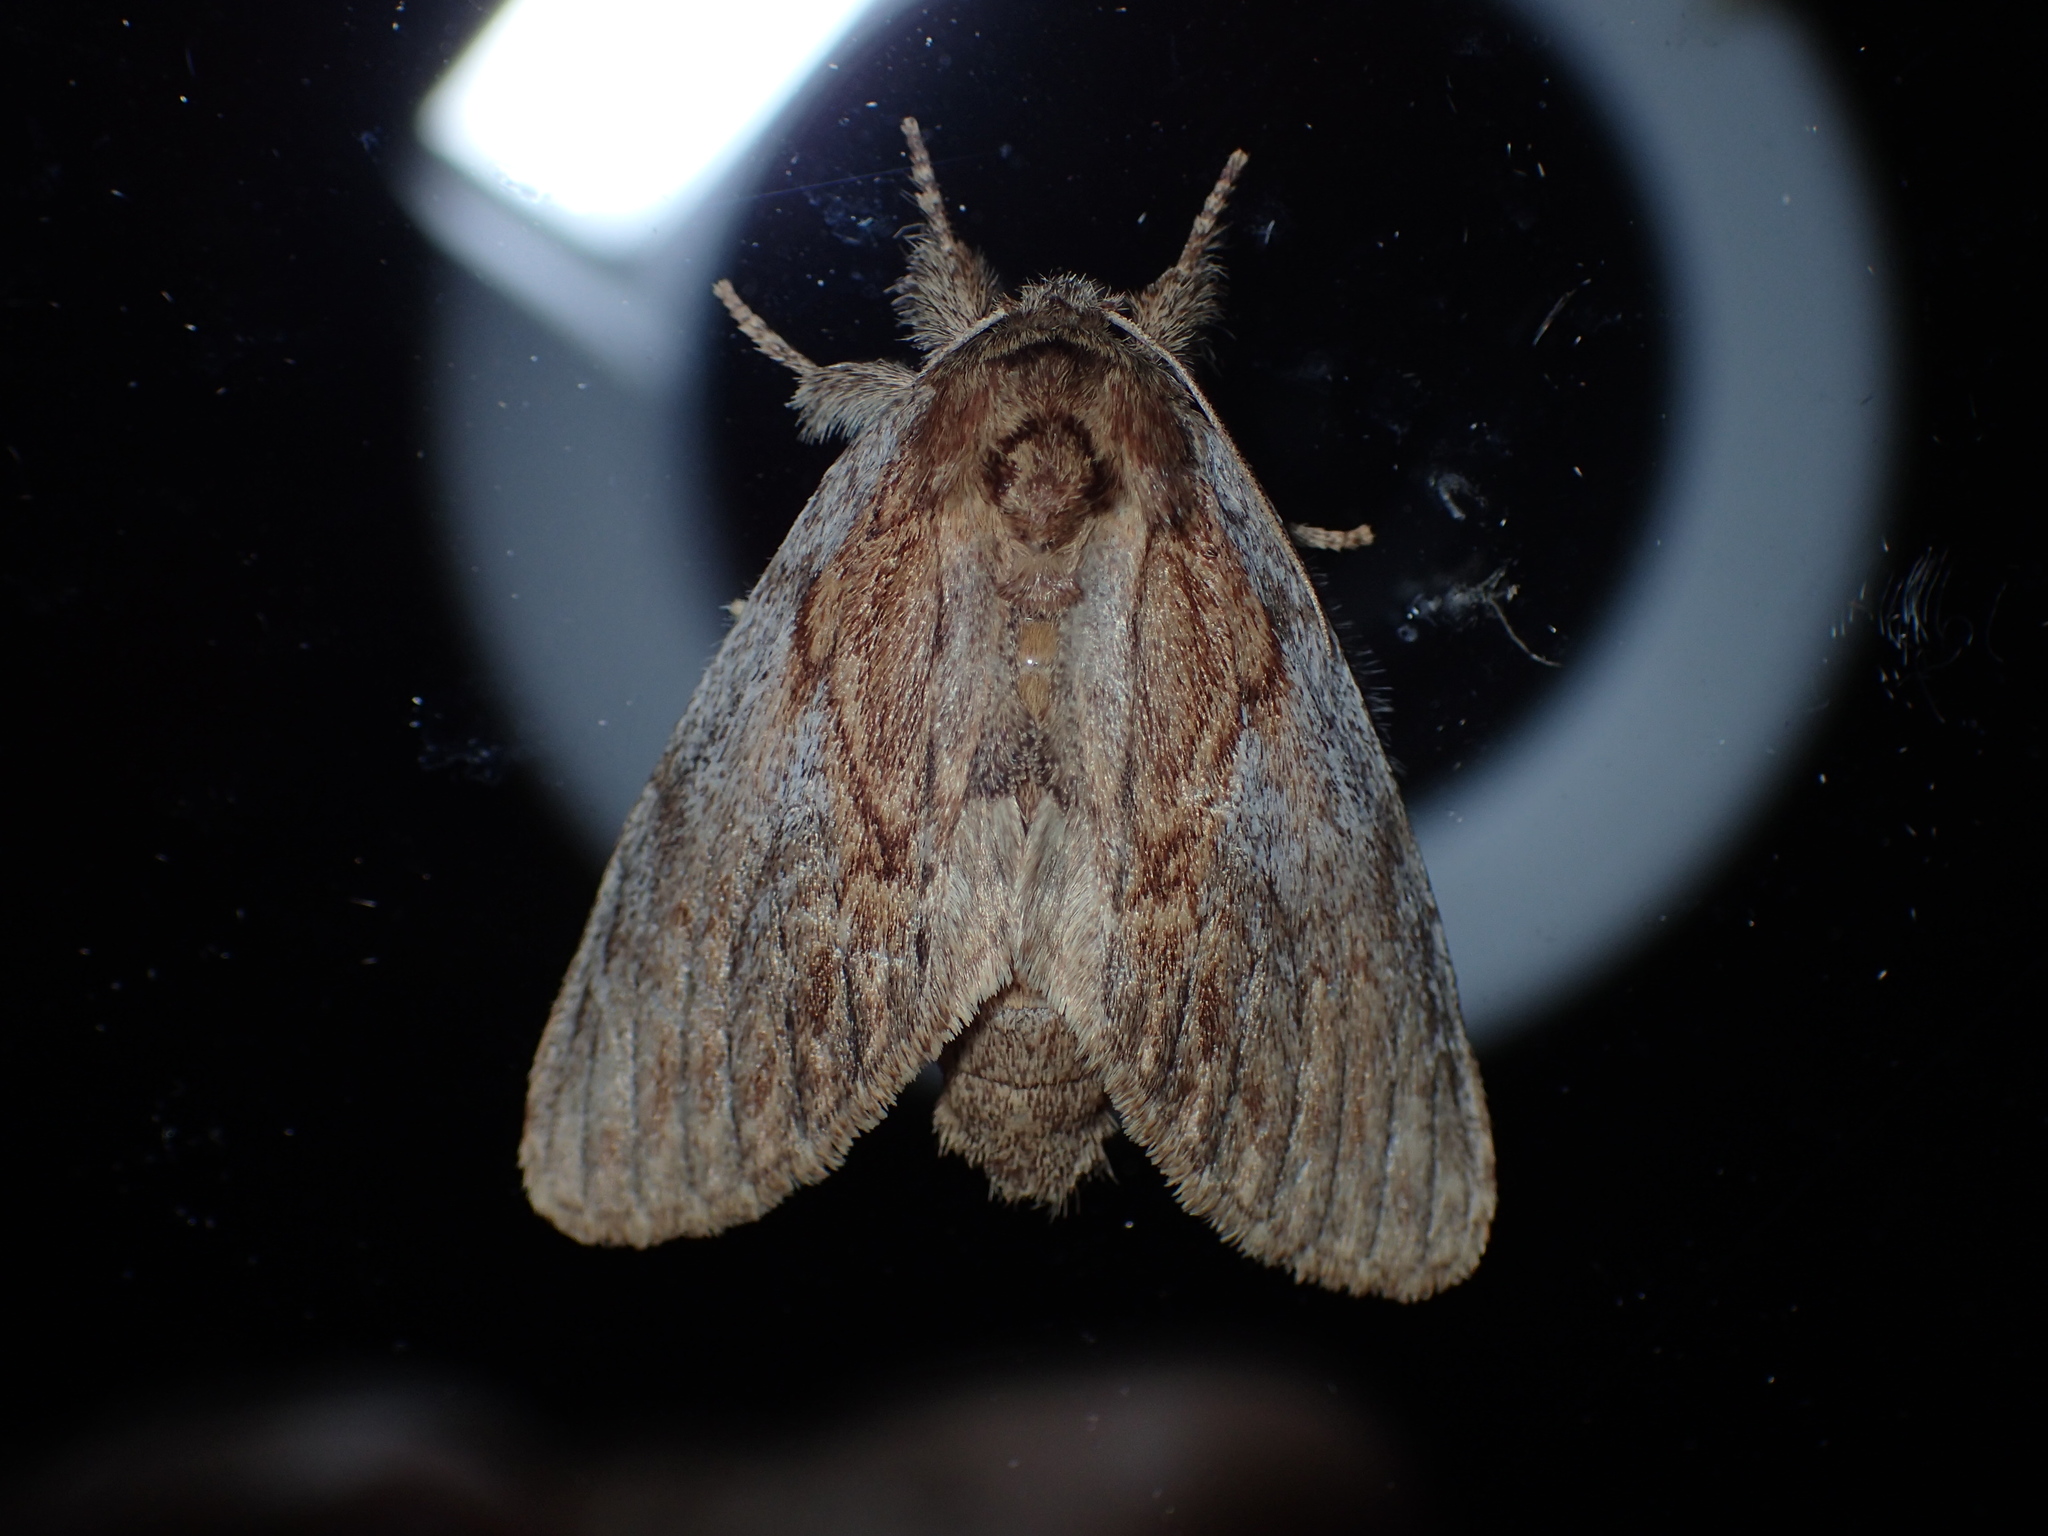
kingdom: Animalia
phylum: Arthropoda
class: Insecta
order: Lepidoptera
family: Notodontidae
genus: Peridea
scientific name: Peridea basitriens
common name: Oval-based prominent
